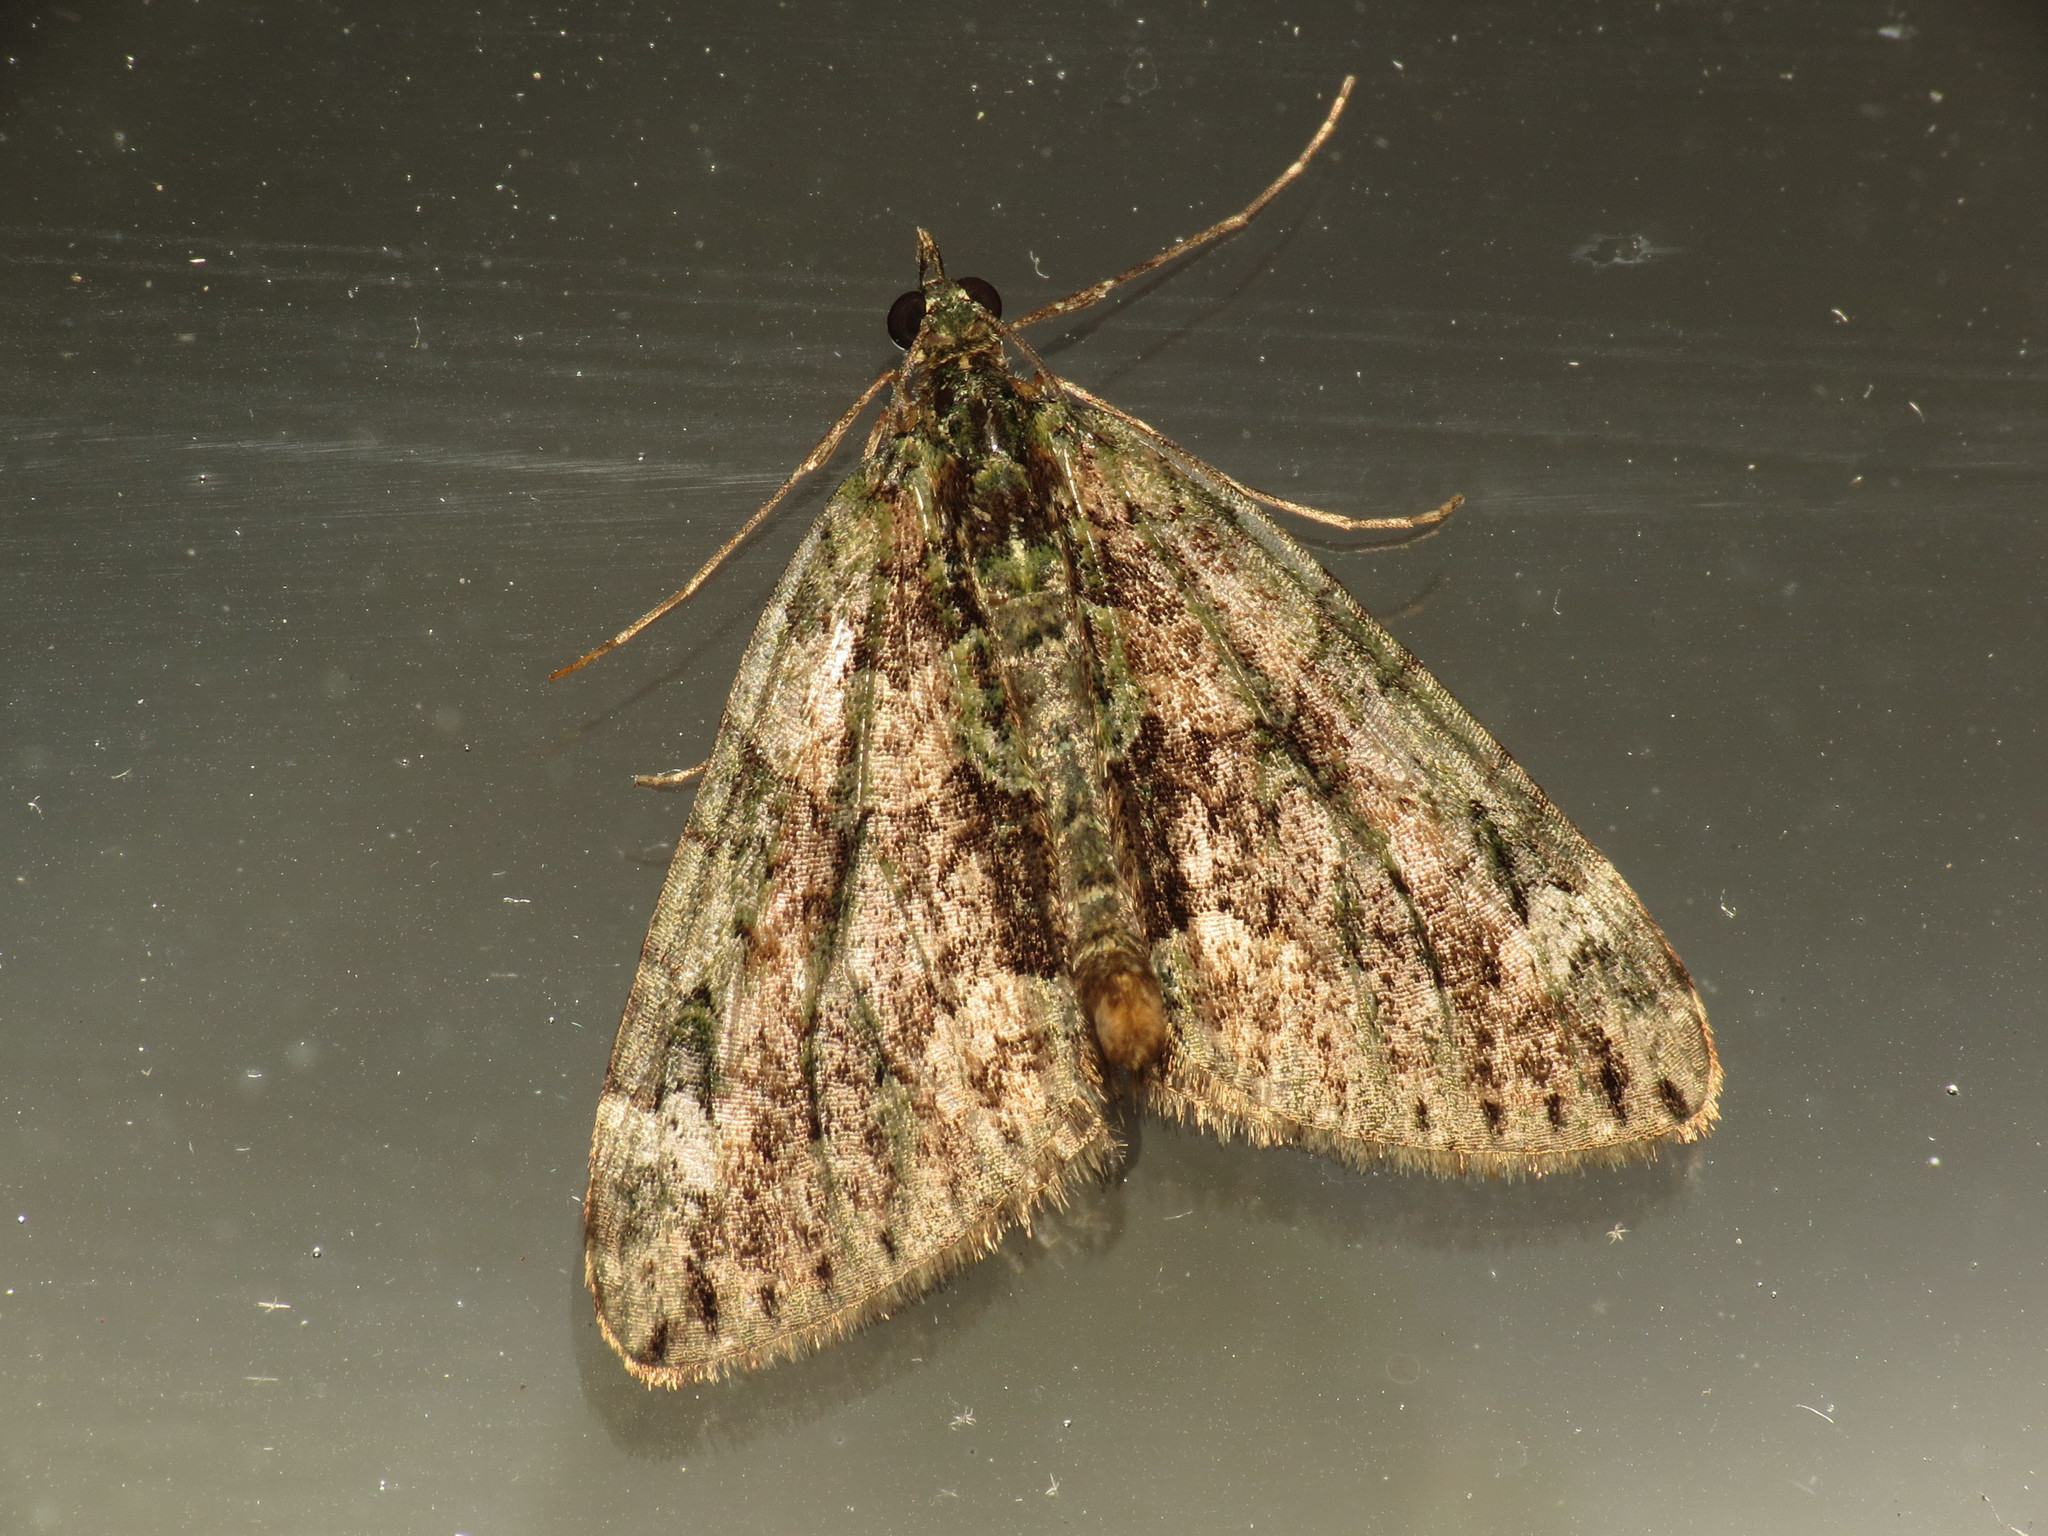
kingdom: Animalia
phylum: Arthropoda
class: Insecta
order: Lepidoptera
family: Geometridae
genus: Chloroclysta
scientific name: Chloroclysta siterata
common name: Red-green carpet
